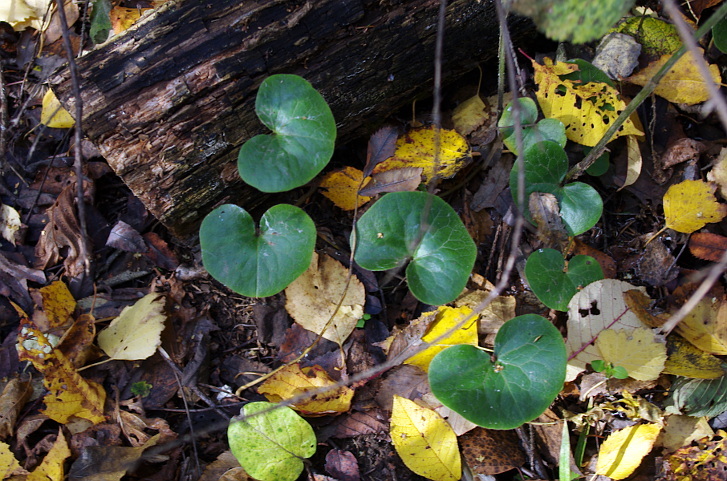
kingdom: Plantae
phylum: Tracheophyta
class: Magnoliopsida
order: Piperales
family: Aristolochiaceae
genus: Asarum
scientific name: Asarum europaeum
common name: Asarabacca
